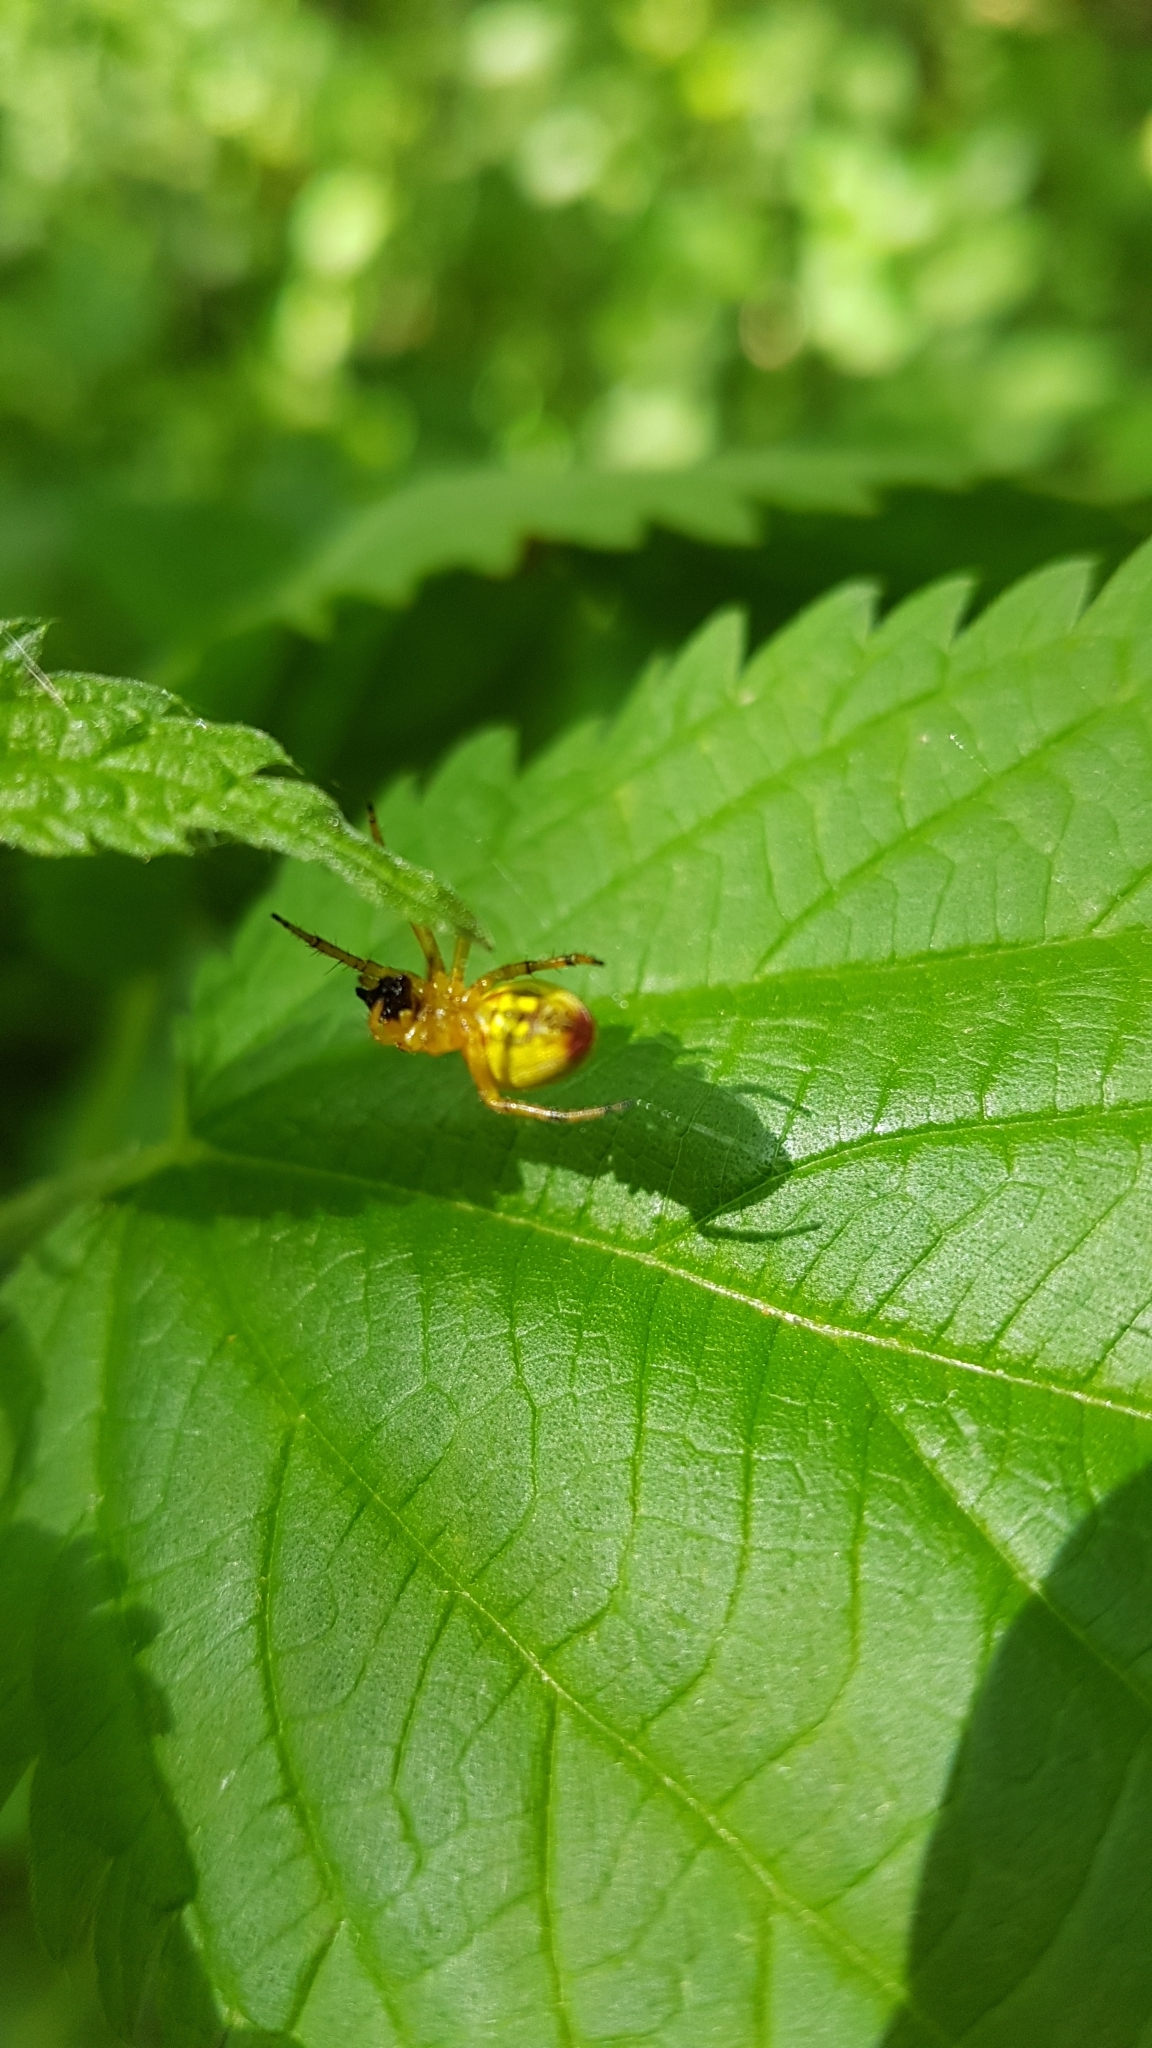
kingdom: Animalia
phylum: Arthropoda
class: Arachnida
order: Araneae
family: Araneidae
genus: Araniella
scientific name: Araniella alpica
